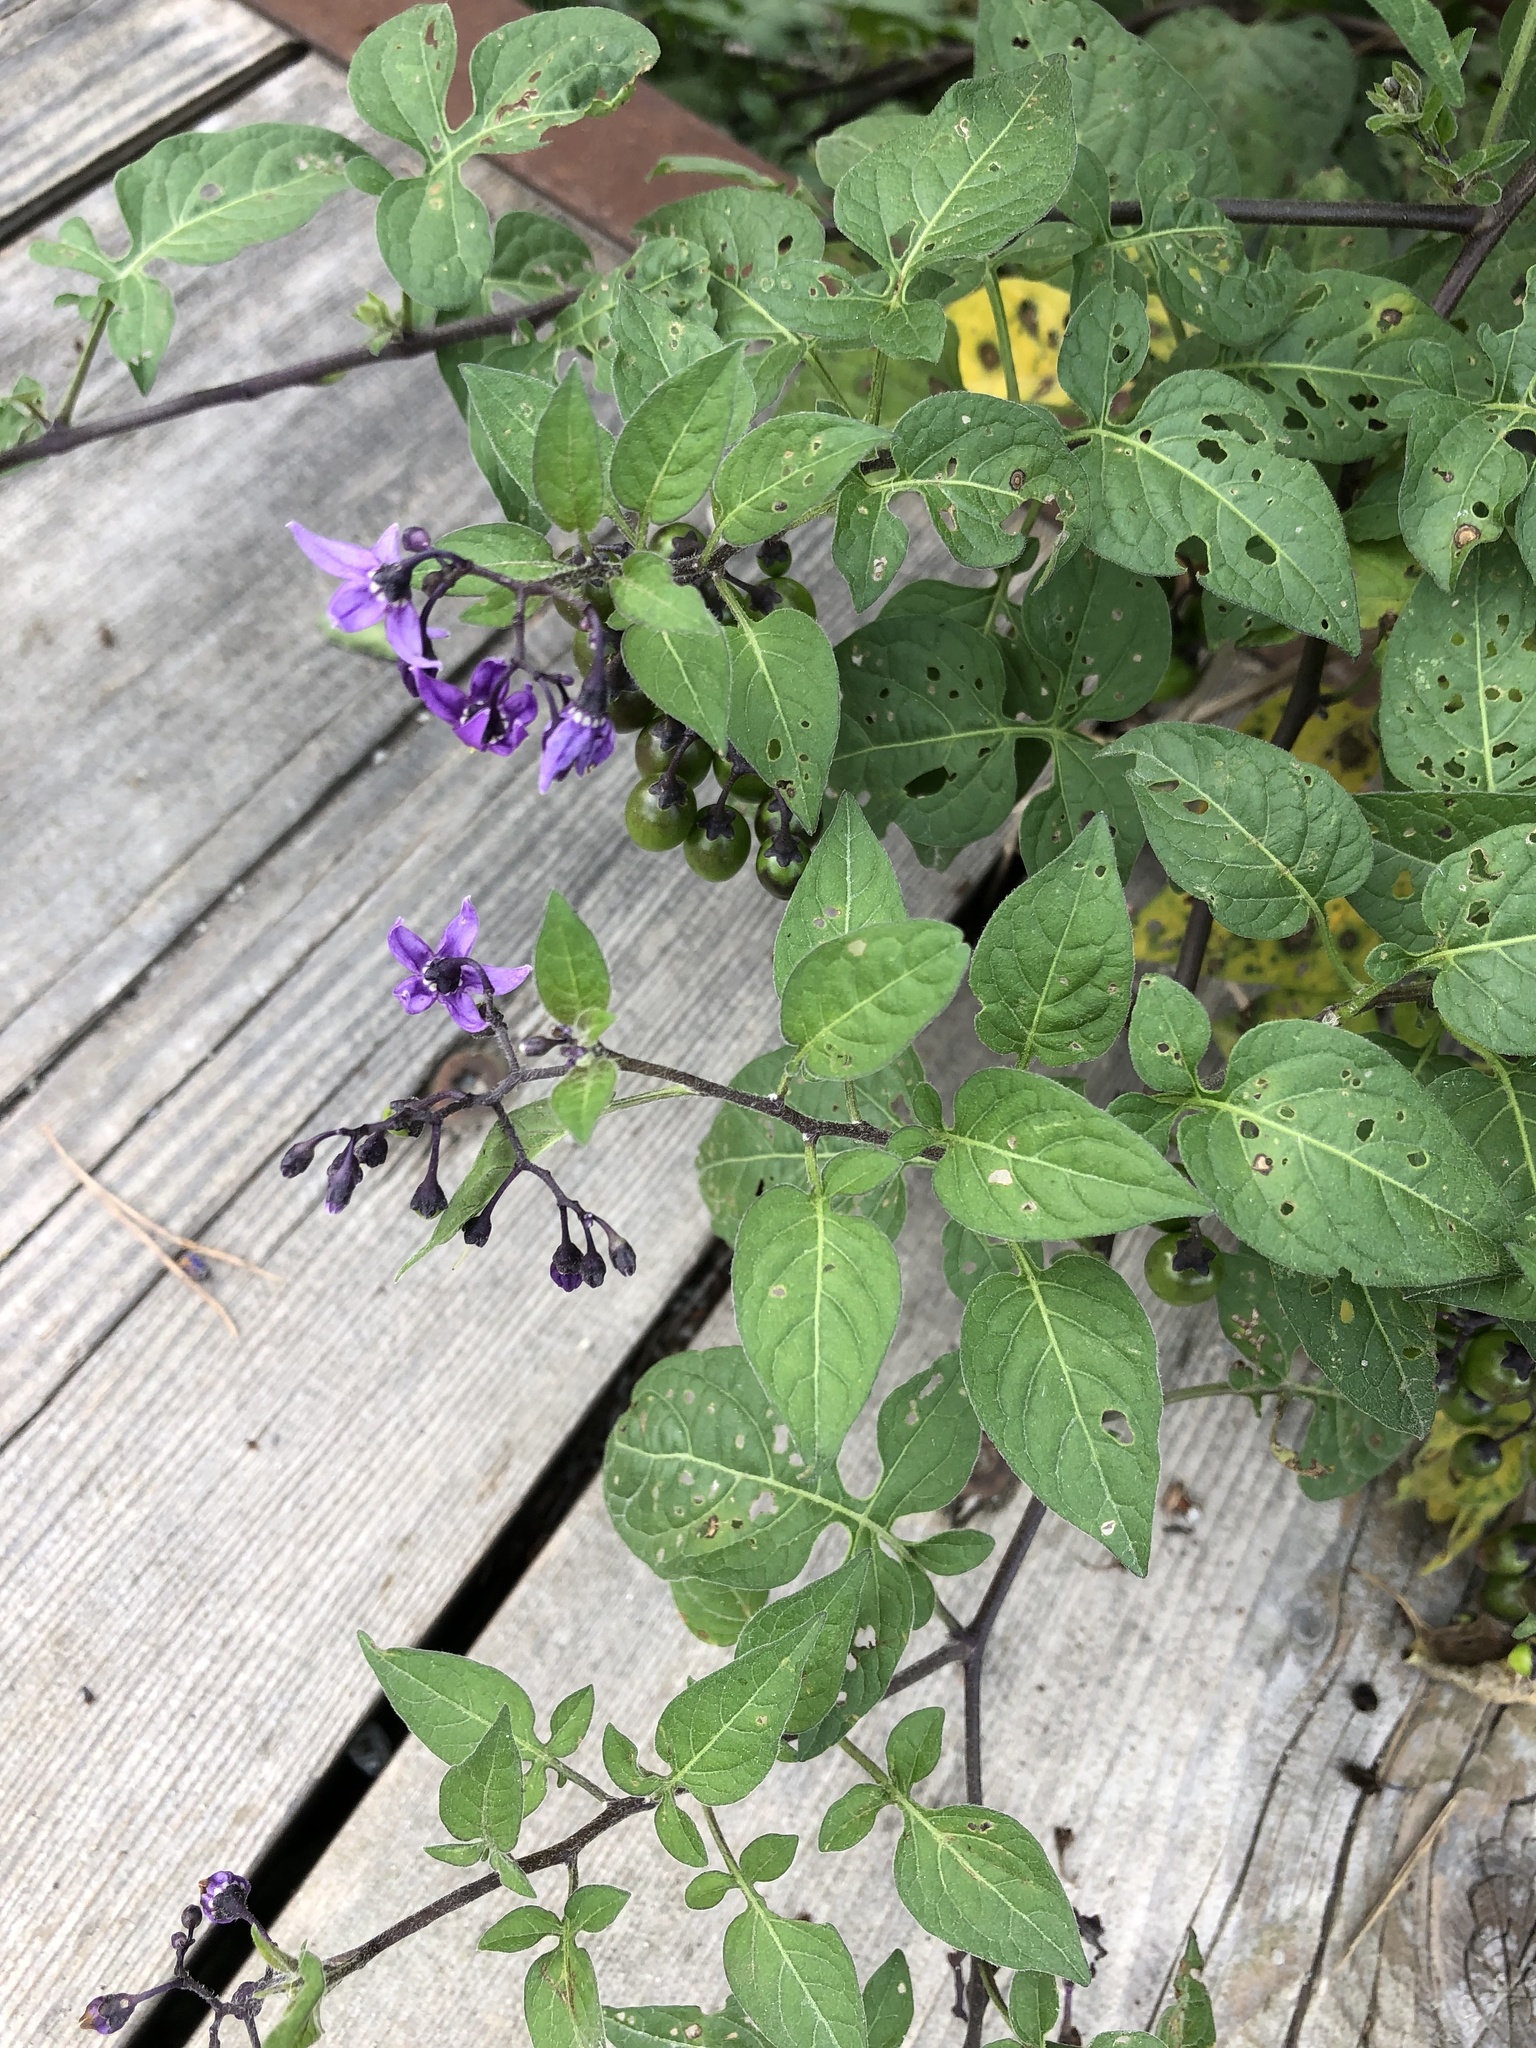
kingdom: Plantae
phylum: Tracheophyta
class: Magnoliopsida
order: Solanales
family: Solanaceae
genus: Solanum
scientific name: Solanum dulcamara
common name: Climbing nightshade
